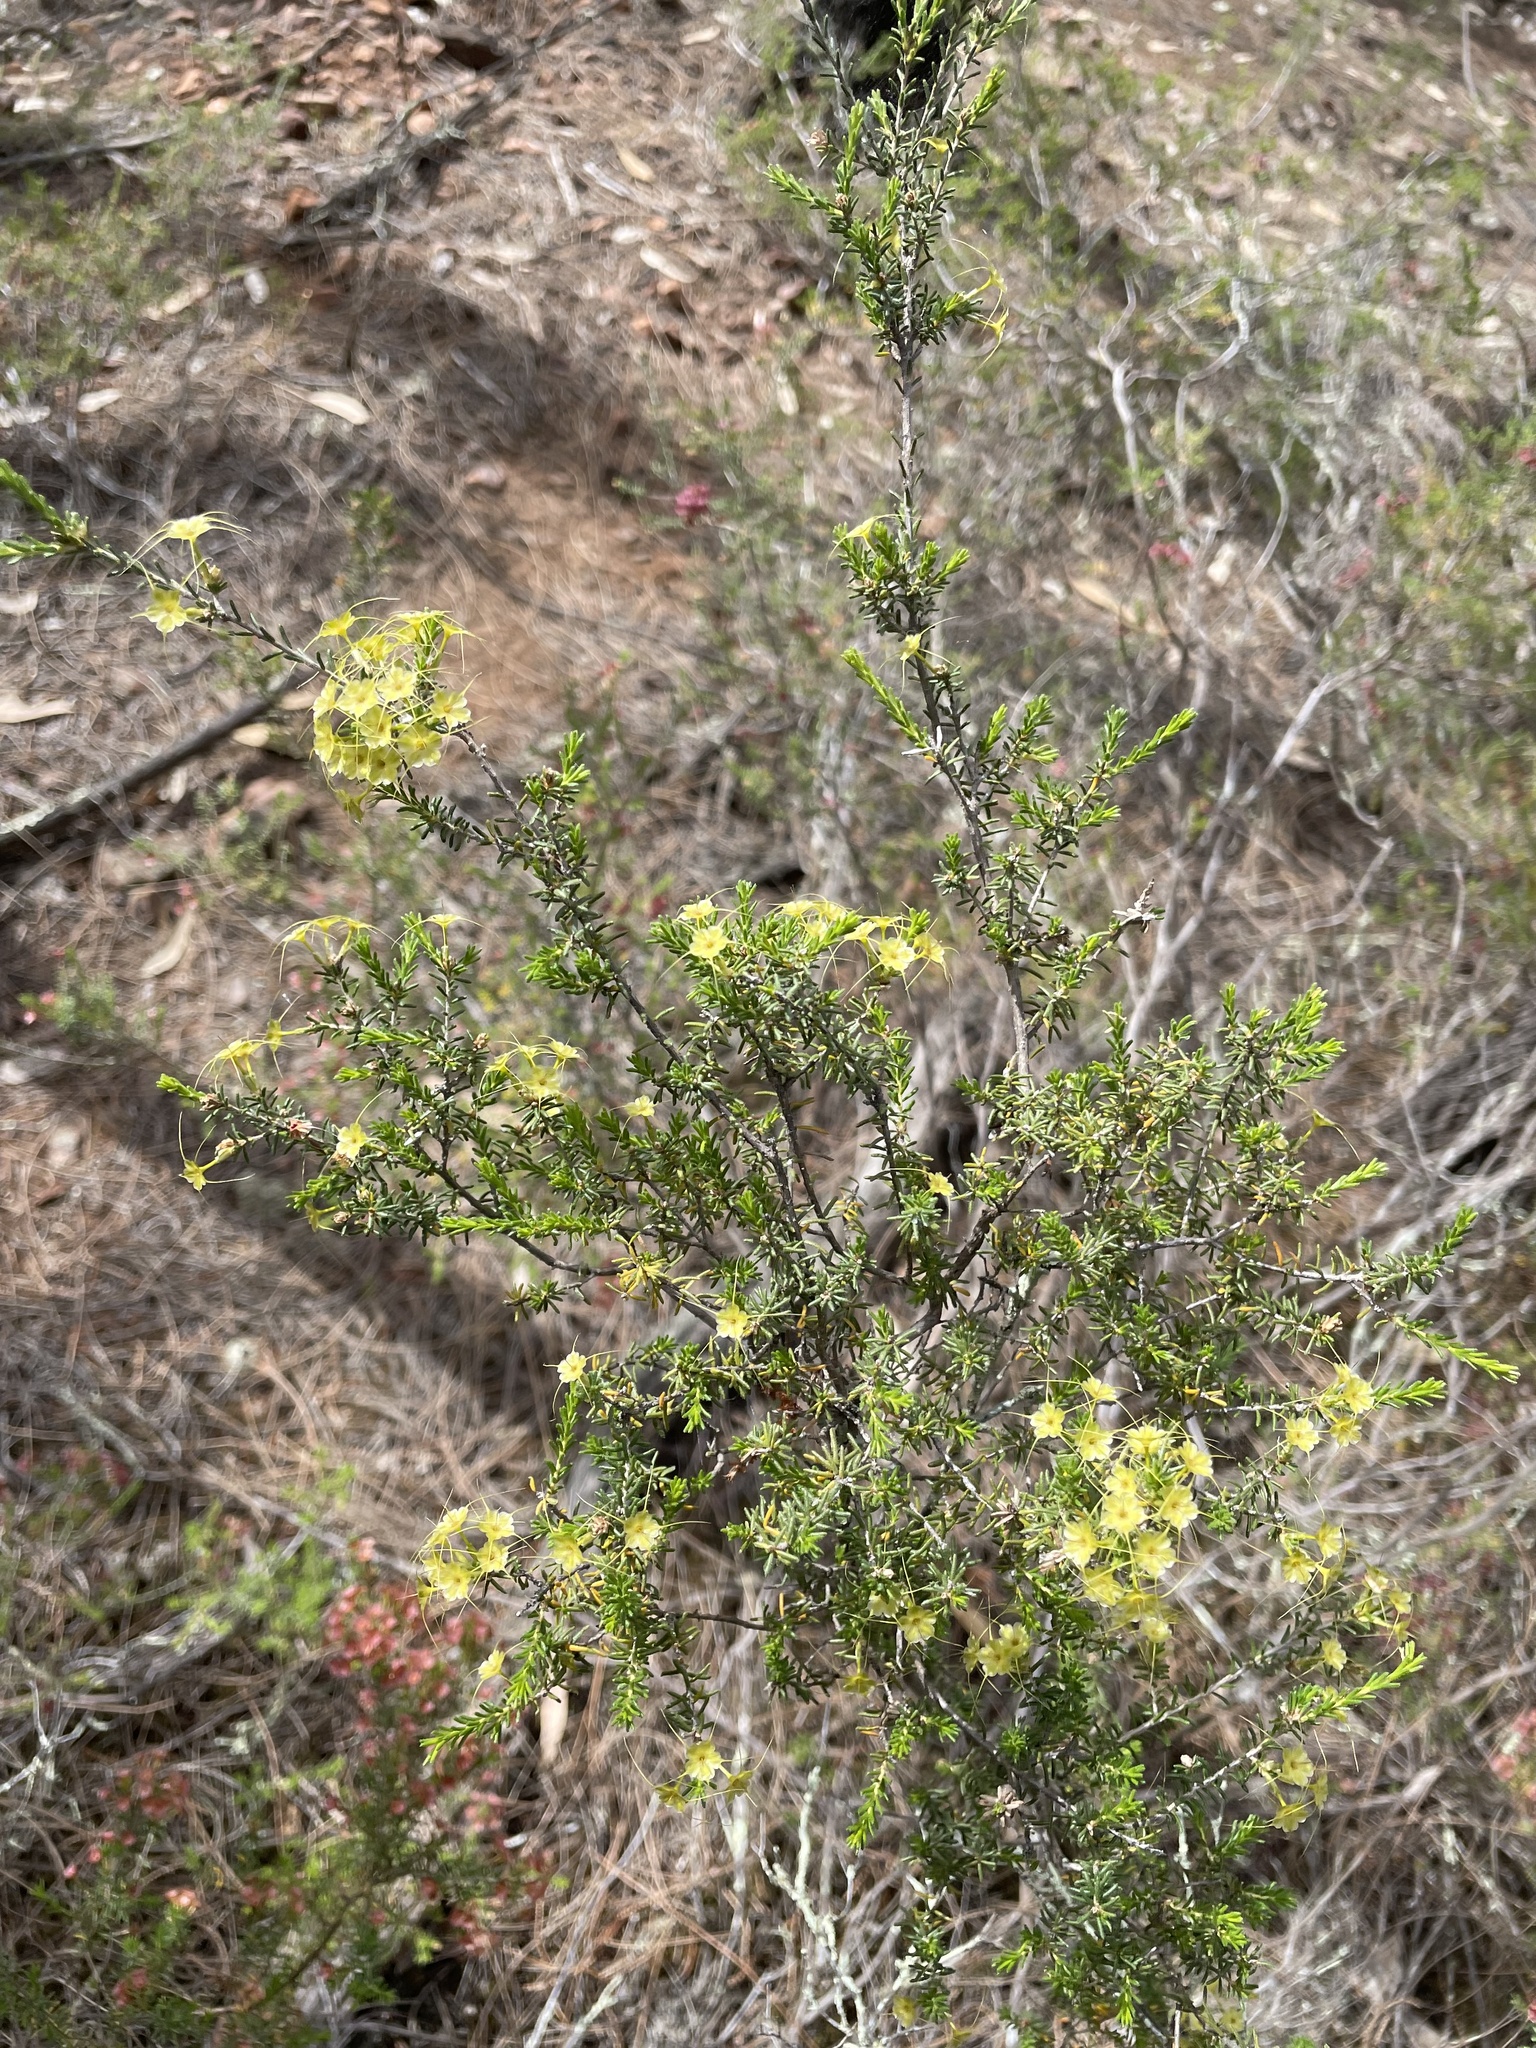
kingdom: Plantae
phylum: Tracheophyta
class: Magnoliopsida
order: Myrtales
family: Myrtaceae
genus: Calytrix
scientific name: Calytrix tetragona
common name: Common fringe myrtle
